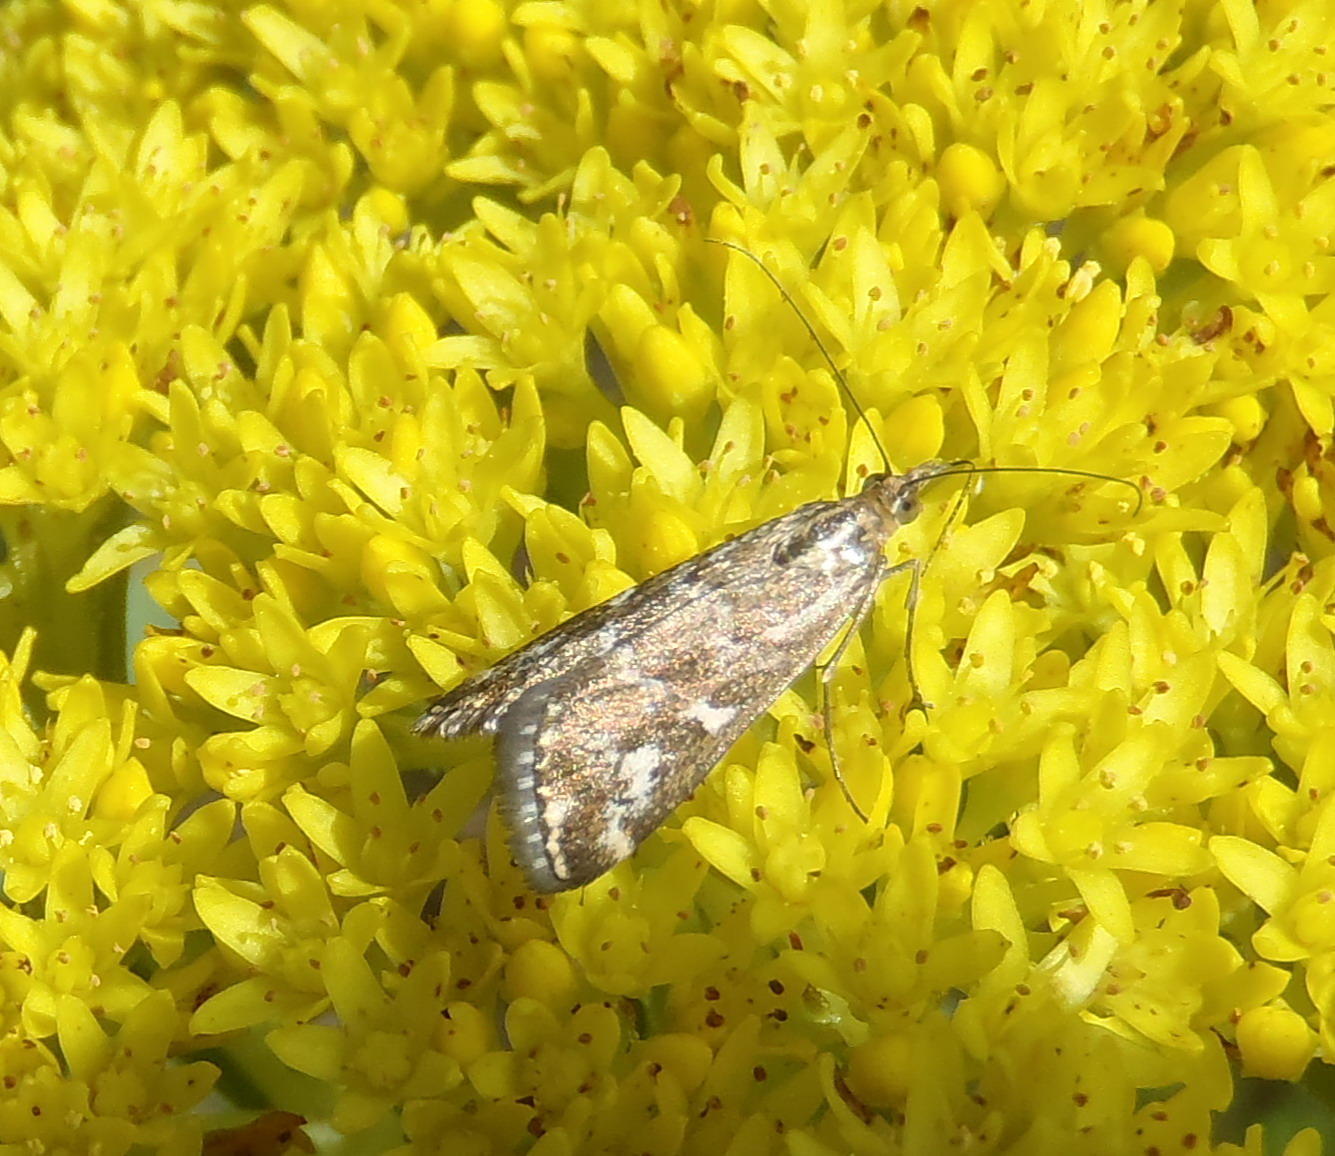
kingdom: Animalia
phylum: Arthropoda
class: Insecta
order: Lepidoptera
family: Crambidae
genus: Loxostege
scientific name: Loxostege frustalis
